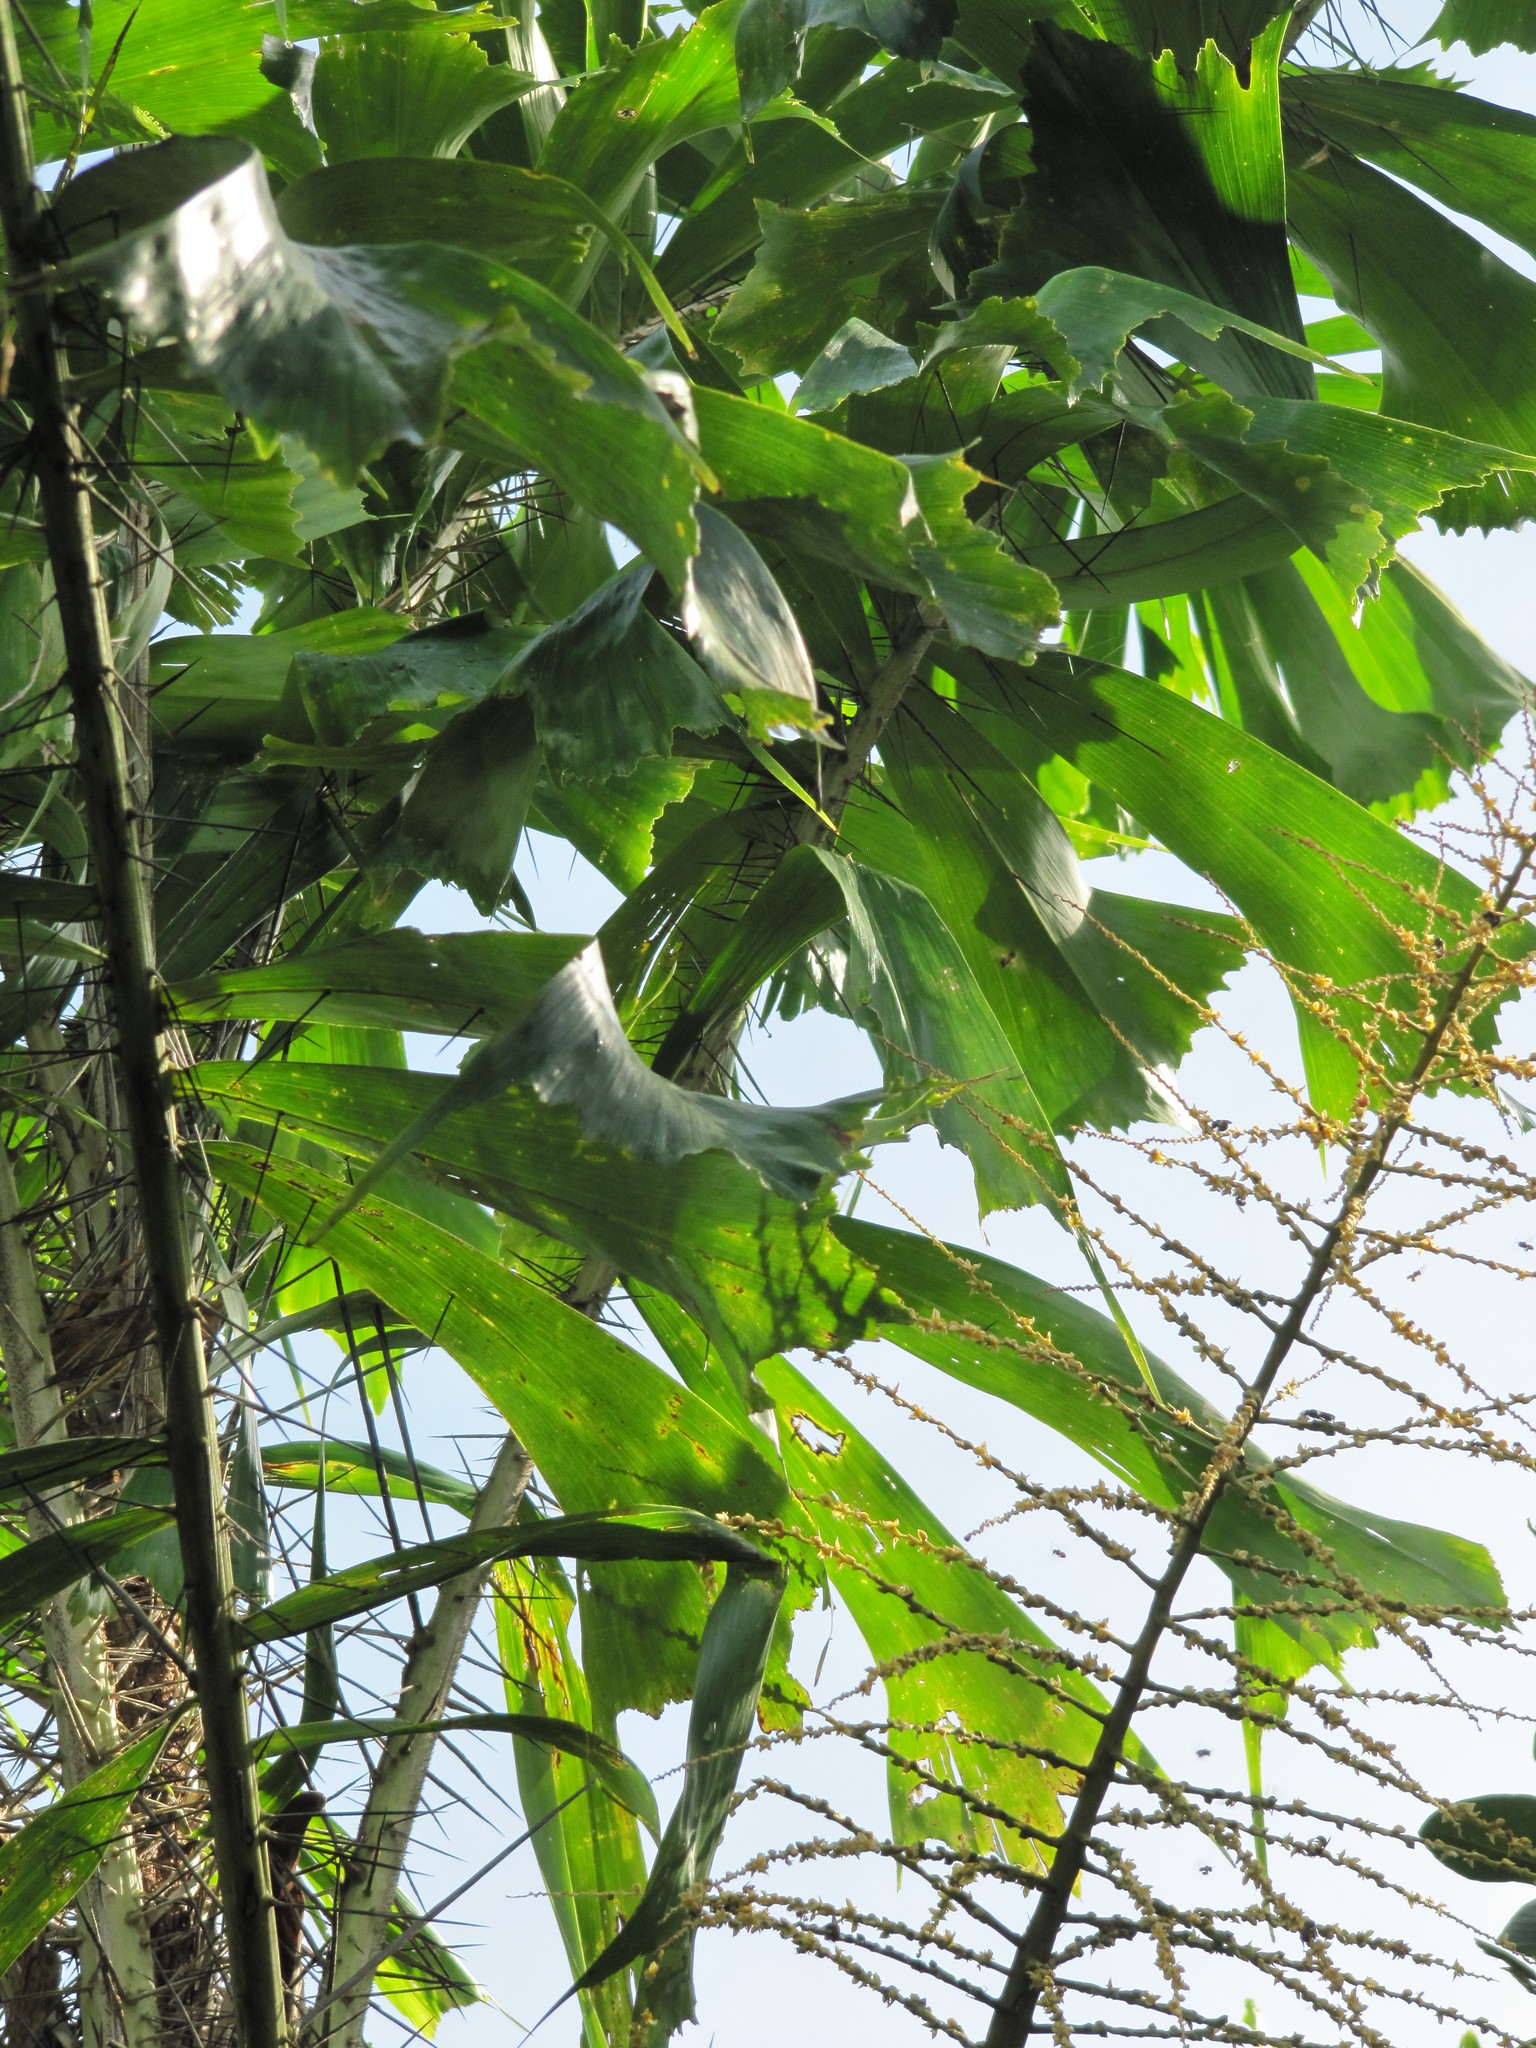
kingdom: Plantae
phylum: Tracheophyta
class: Liliopsida
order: Arecales
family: Arecaceae
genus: Aiphanes
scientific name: Aiphanes horrida
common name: Ruffle palm
